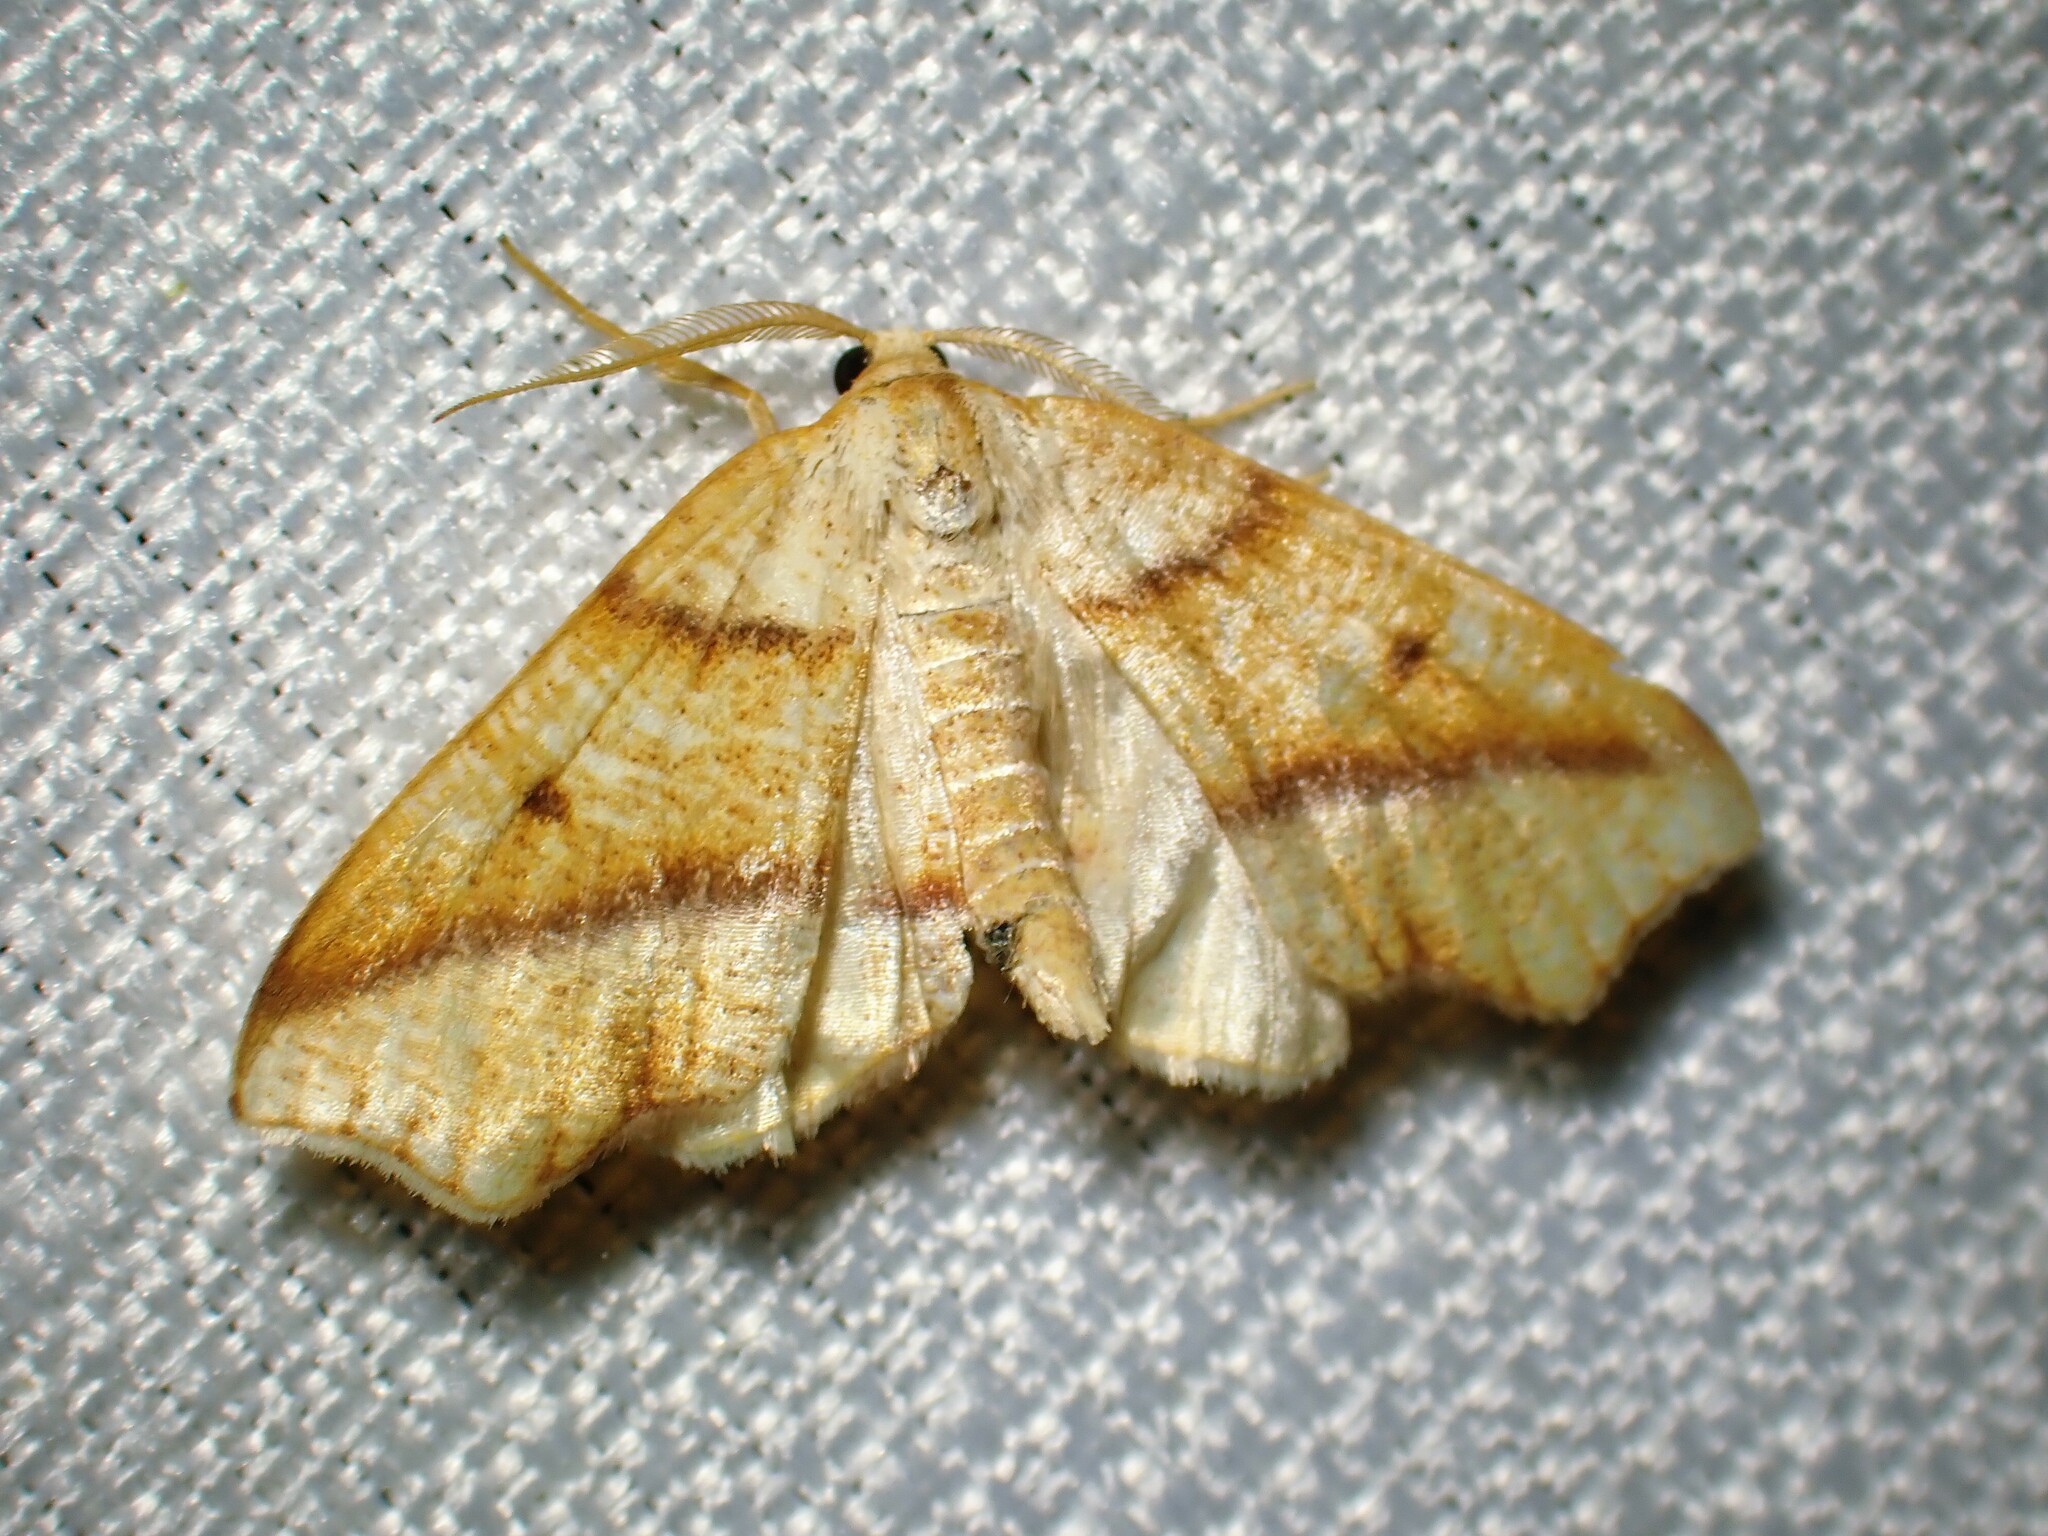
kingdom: Animalia
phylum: Arthropoda
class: Insecta
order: Lepidoptera
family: Geometridae
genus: Plagodis
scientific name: Plagodis alcoolaria
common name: Hollow-spotted plagodis
